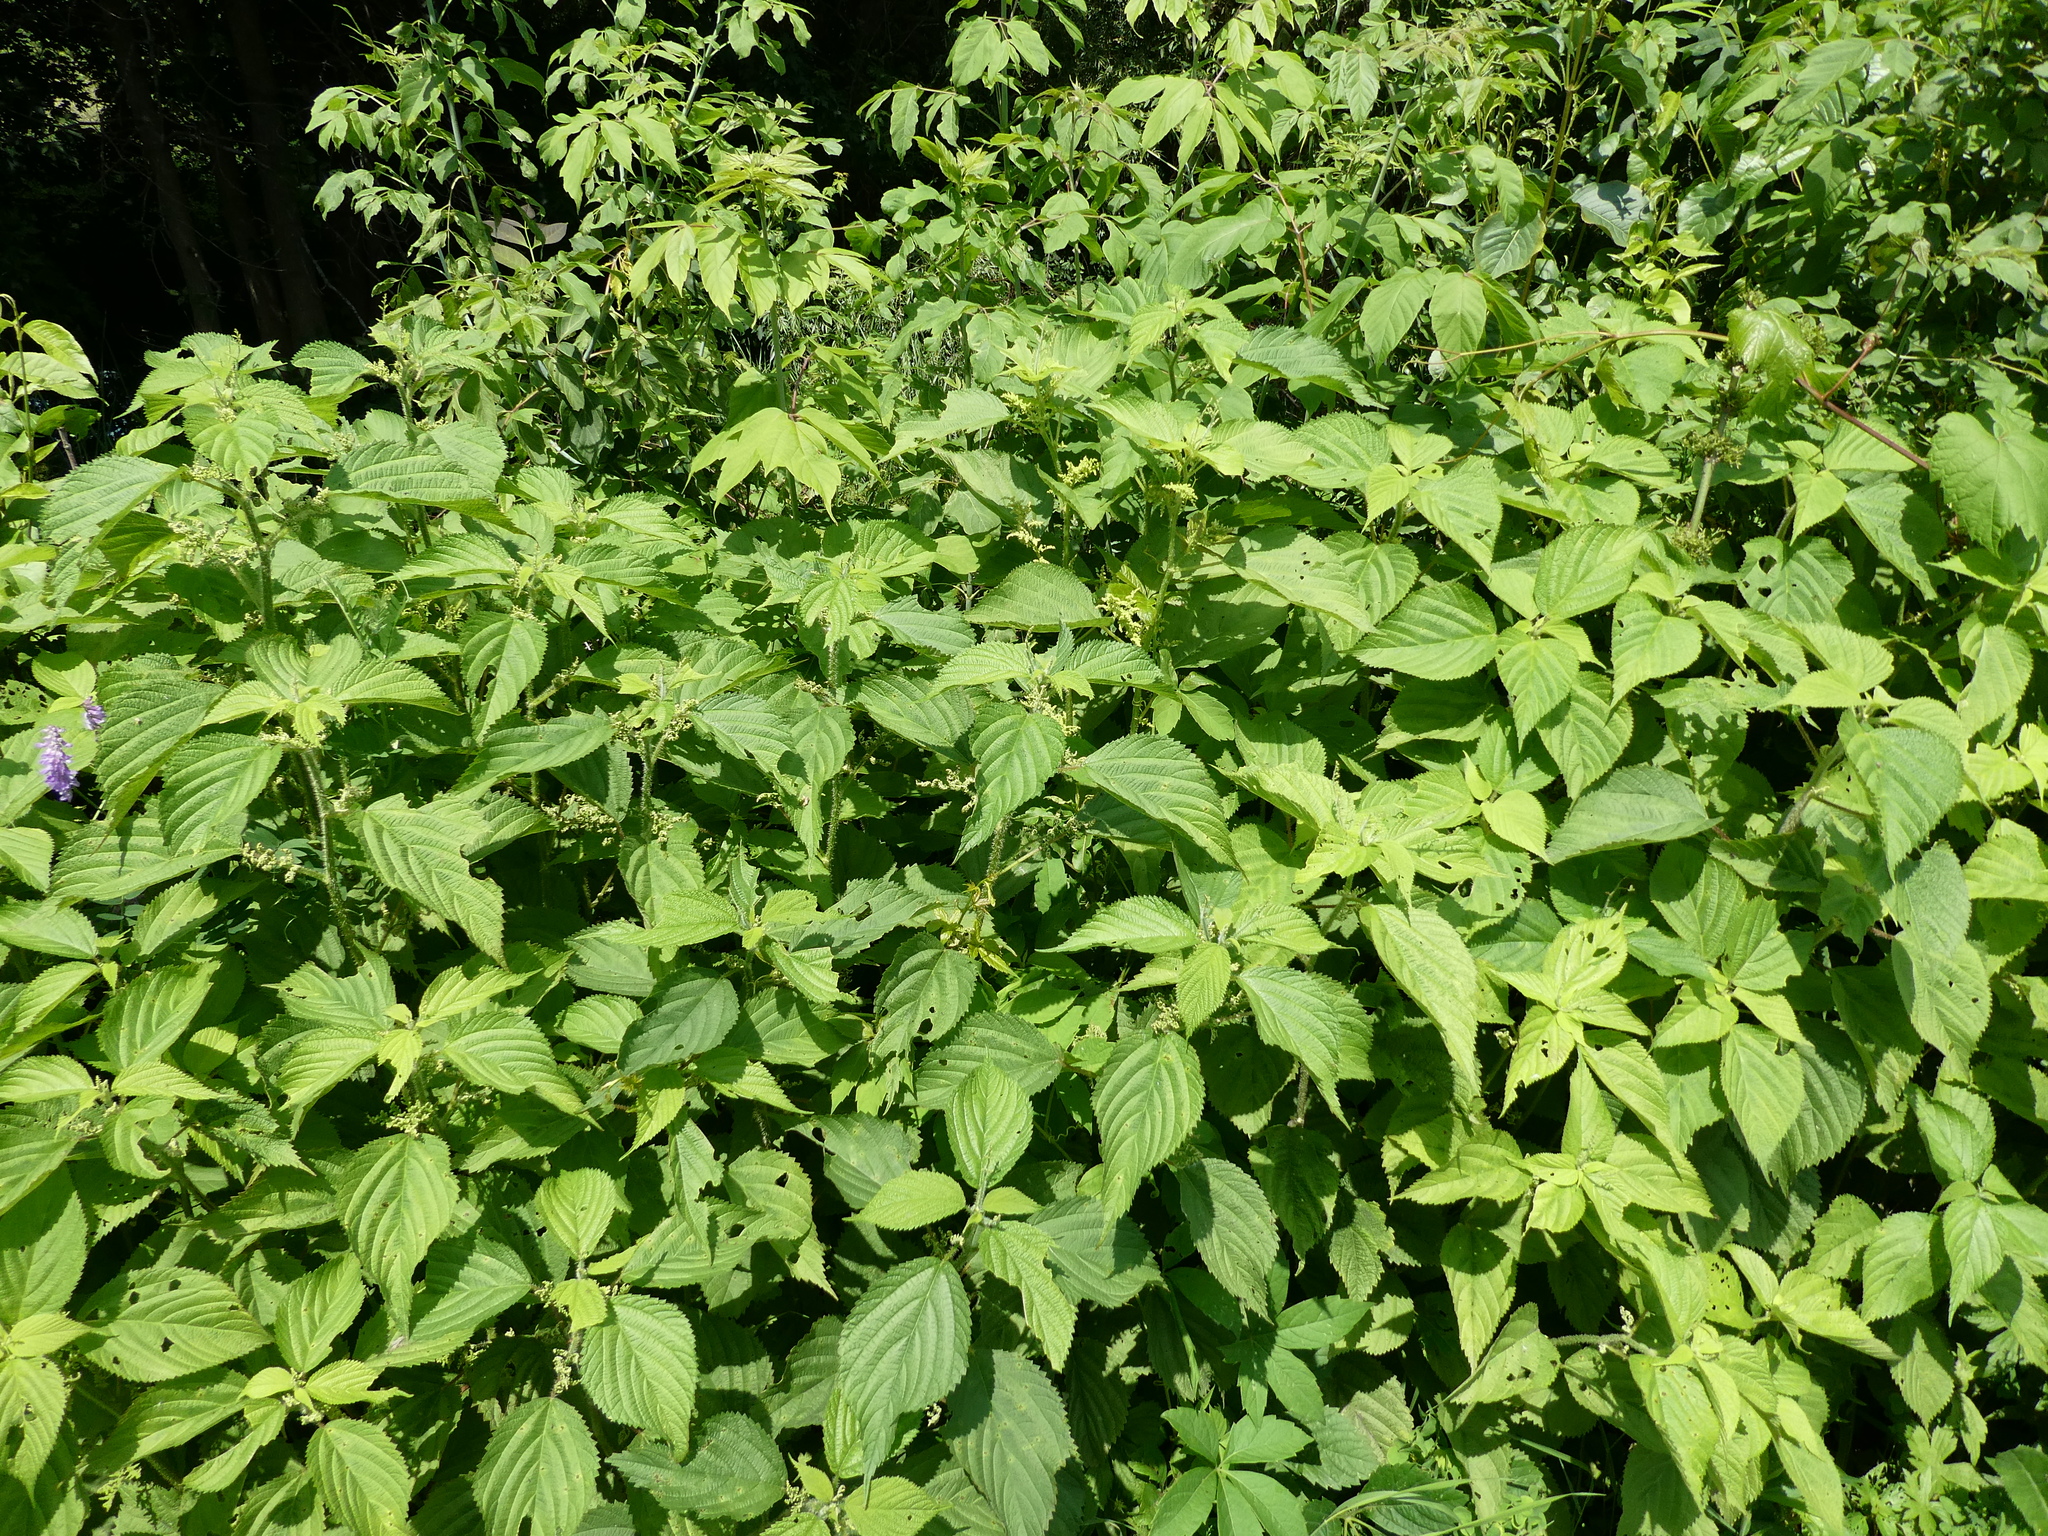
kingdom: Plantae
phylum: Tracheophyta
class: Magnoliopsida
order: Rosales
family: Urticaceae
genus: Laportea
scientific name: Laportea canadensis
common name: Canada nettle
